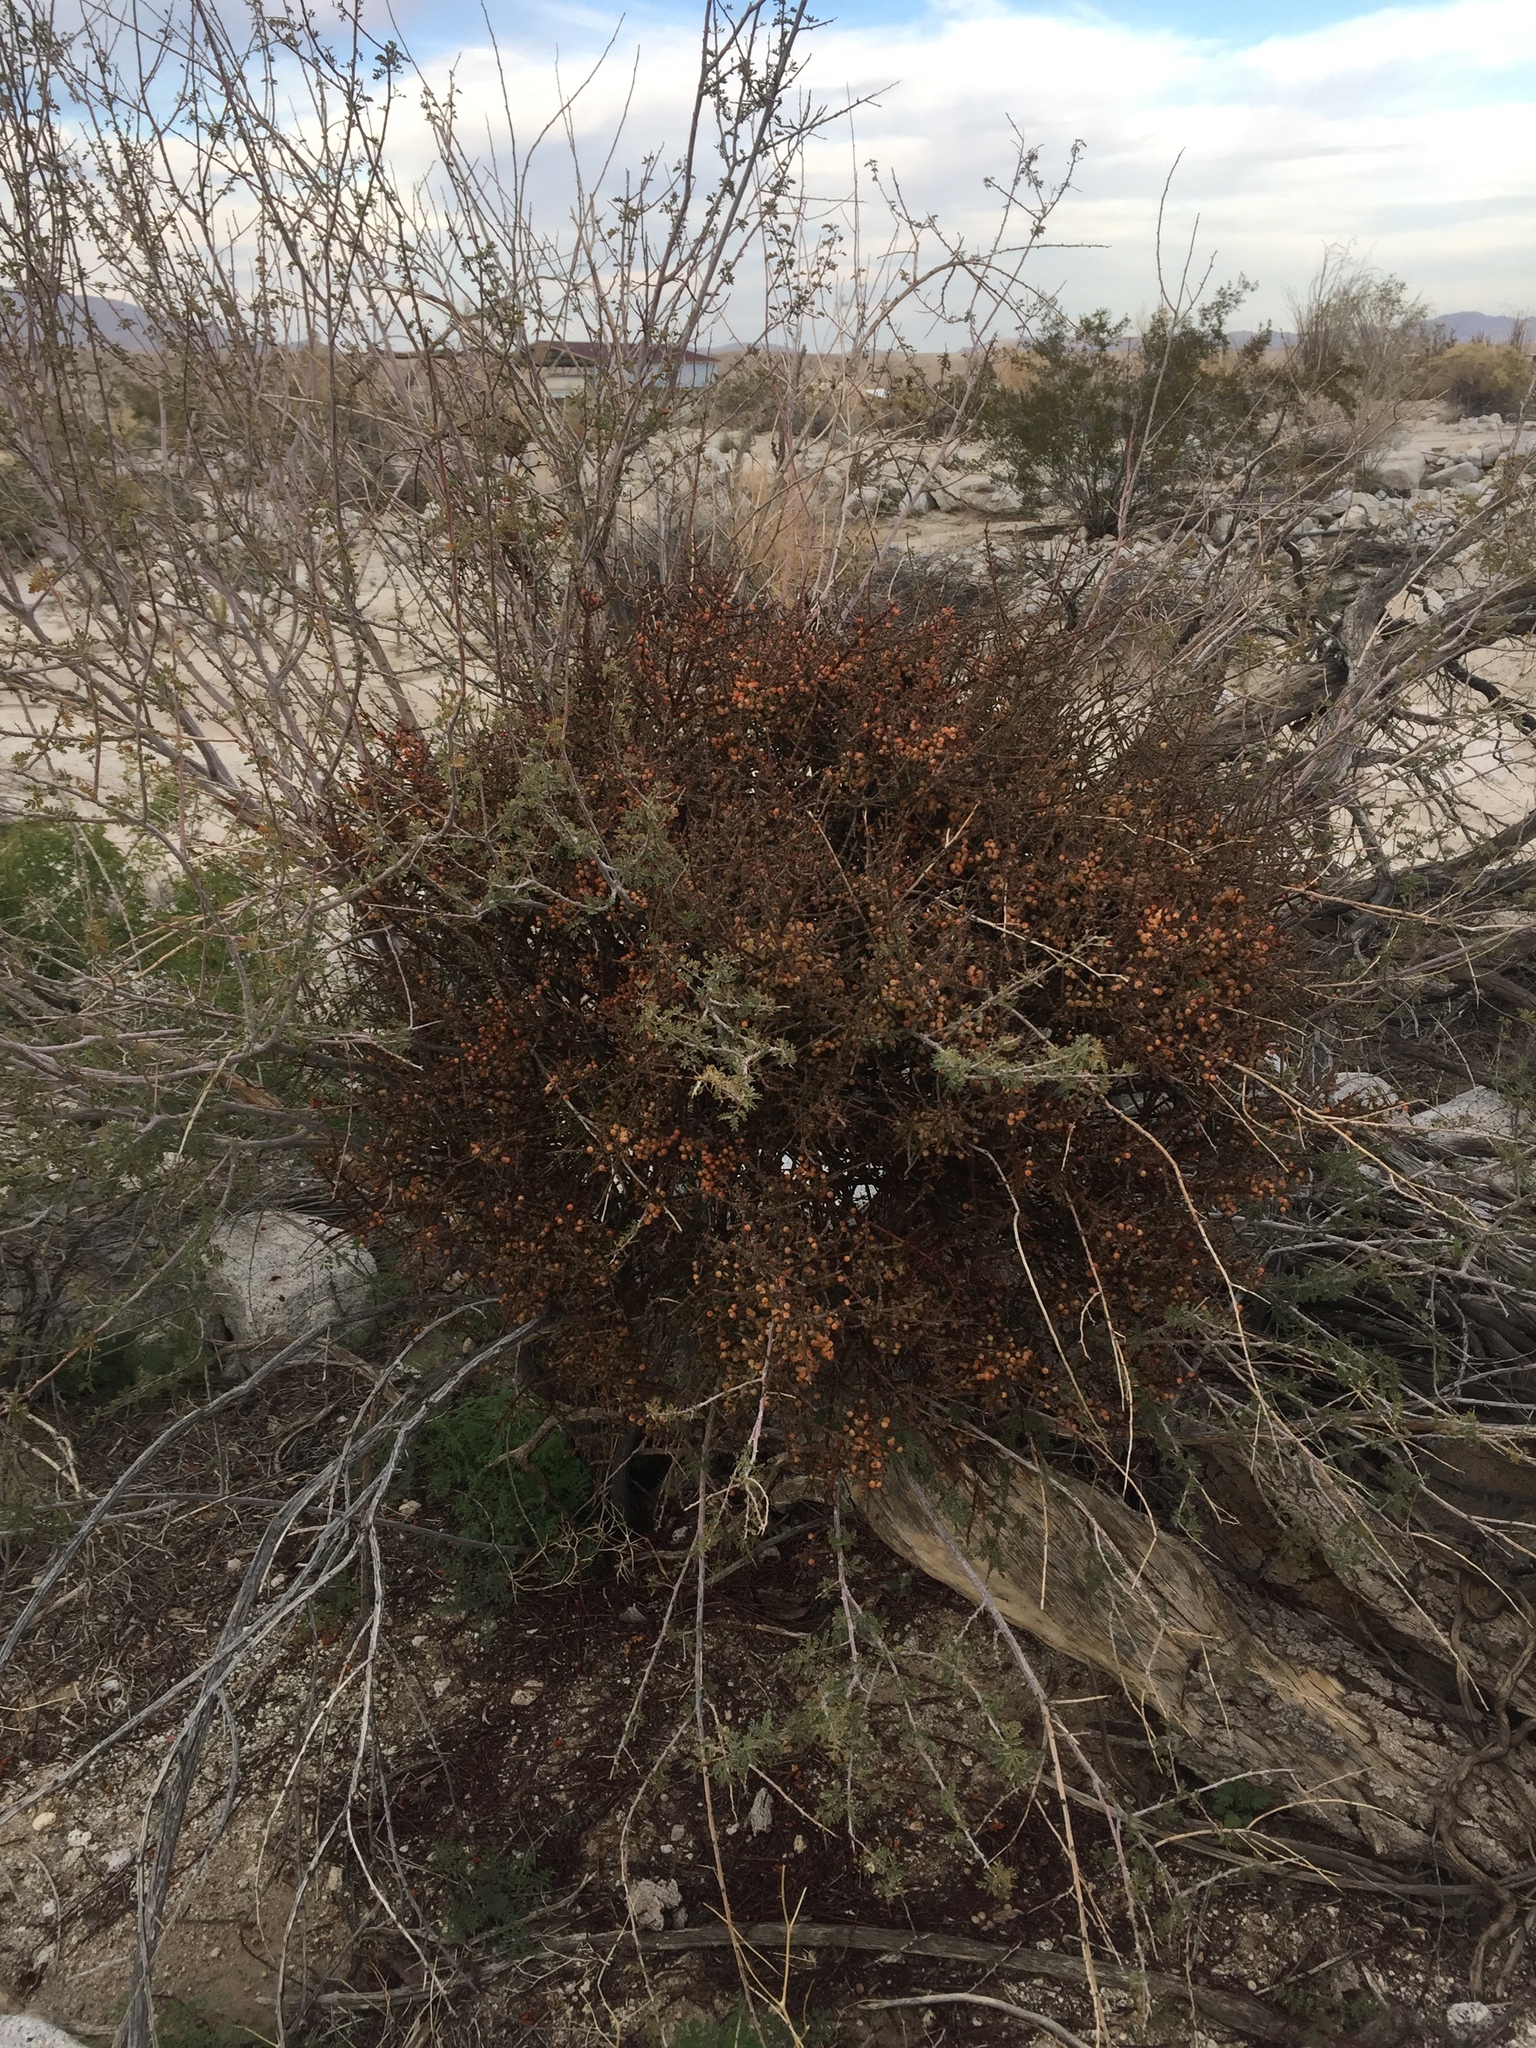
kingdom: Plantae
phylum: Tracheophyta
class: Magnoliopsida
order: Santalales
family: Viscaceae
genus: Phoradendron
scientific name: Phoradendron californicum
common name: Acacia mistletoe
